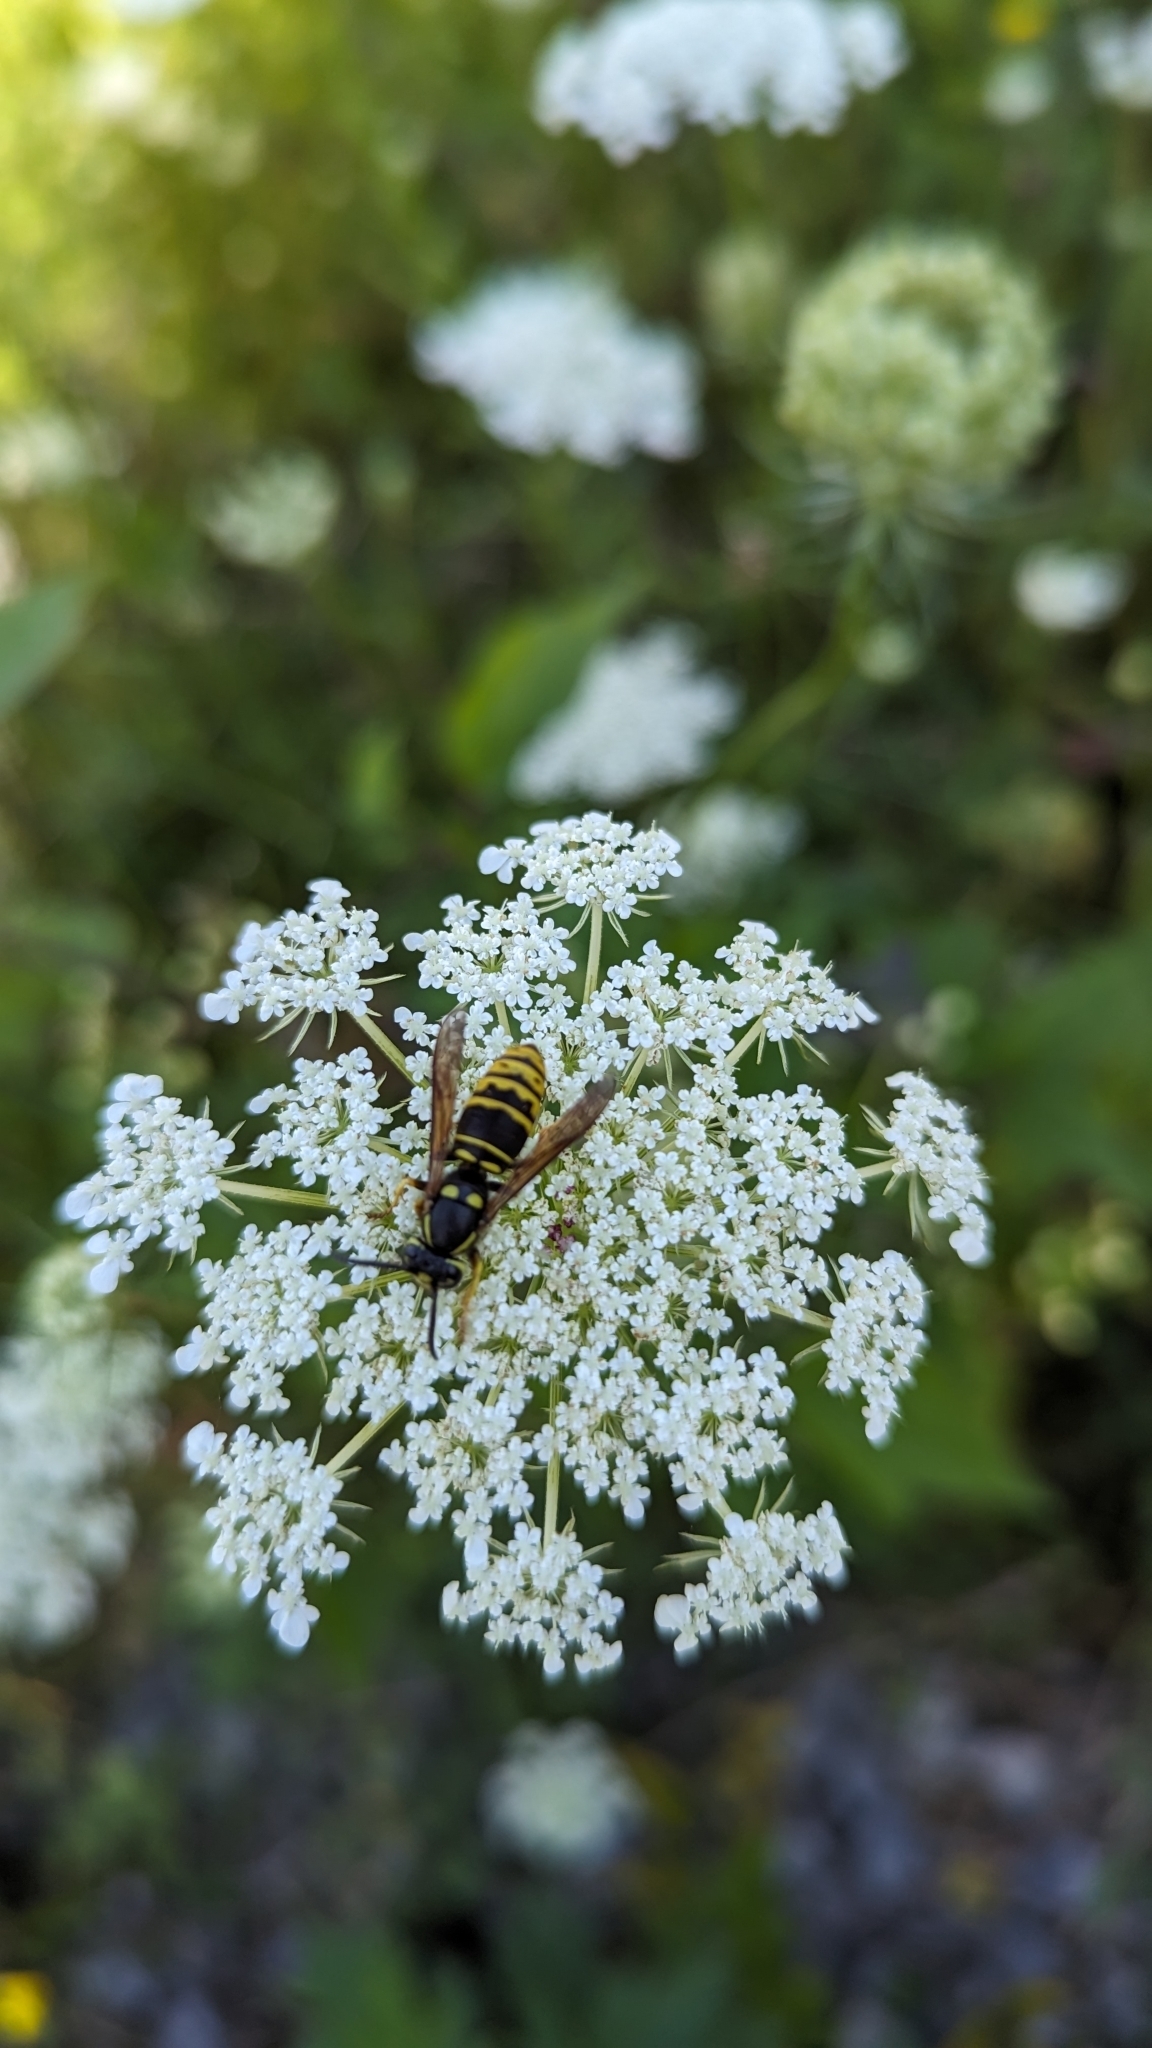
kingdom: Animalia
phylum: Arthropoda
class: Insecta
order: Hymenoptera
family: Vespidae
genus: Vespula
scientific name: Vespula vidua
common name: Widow yellowjacket
